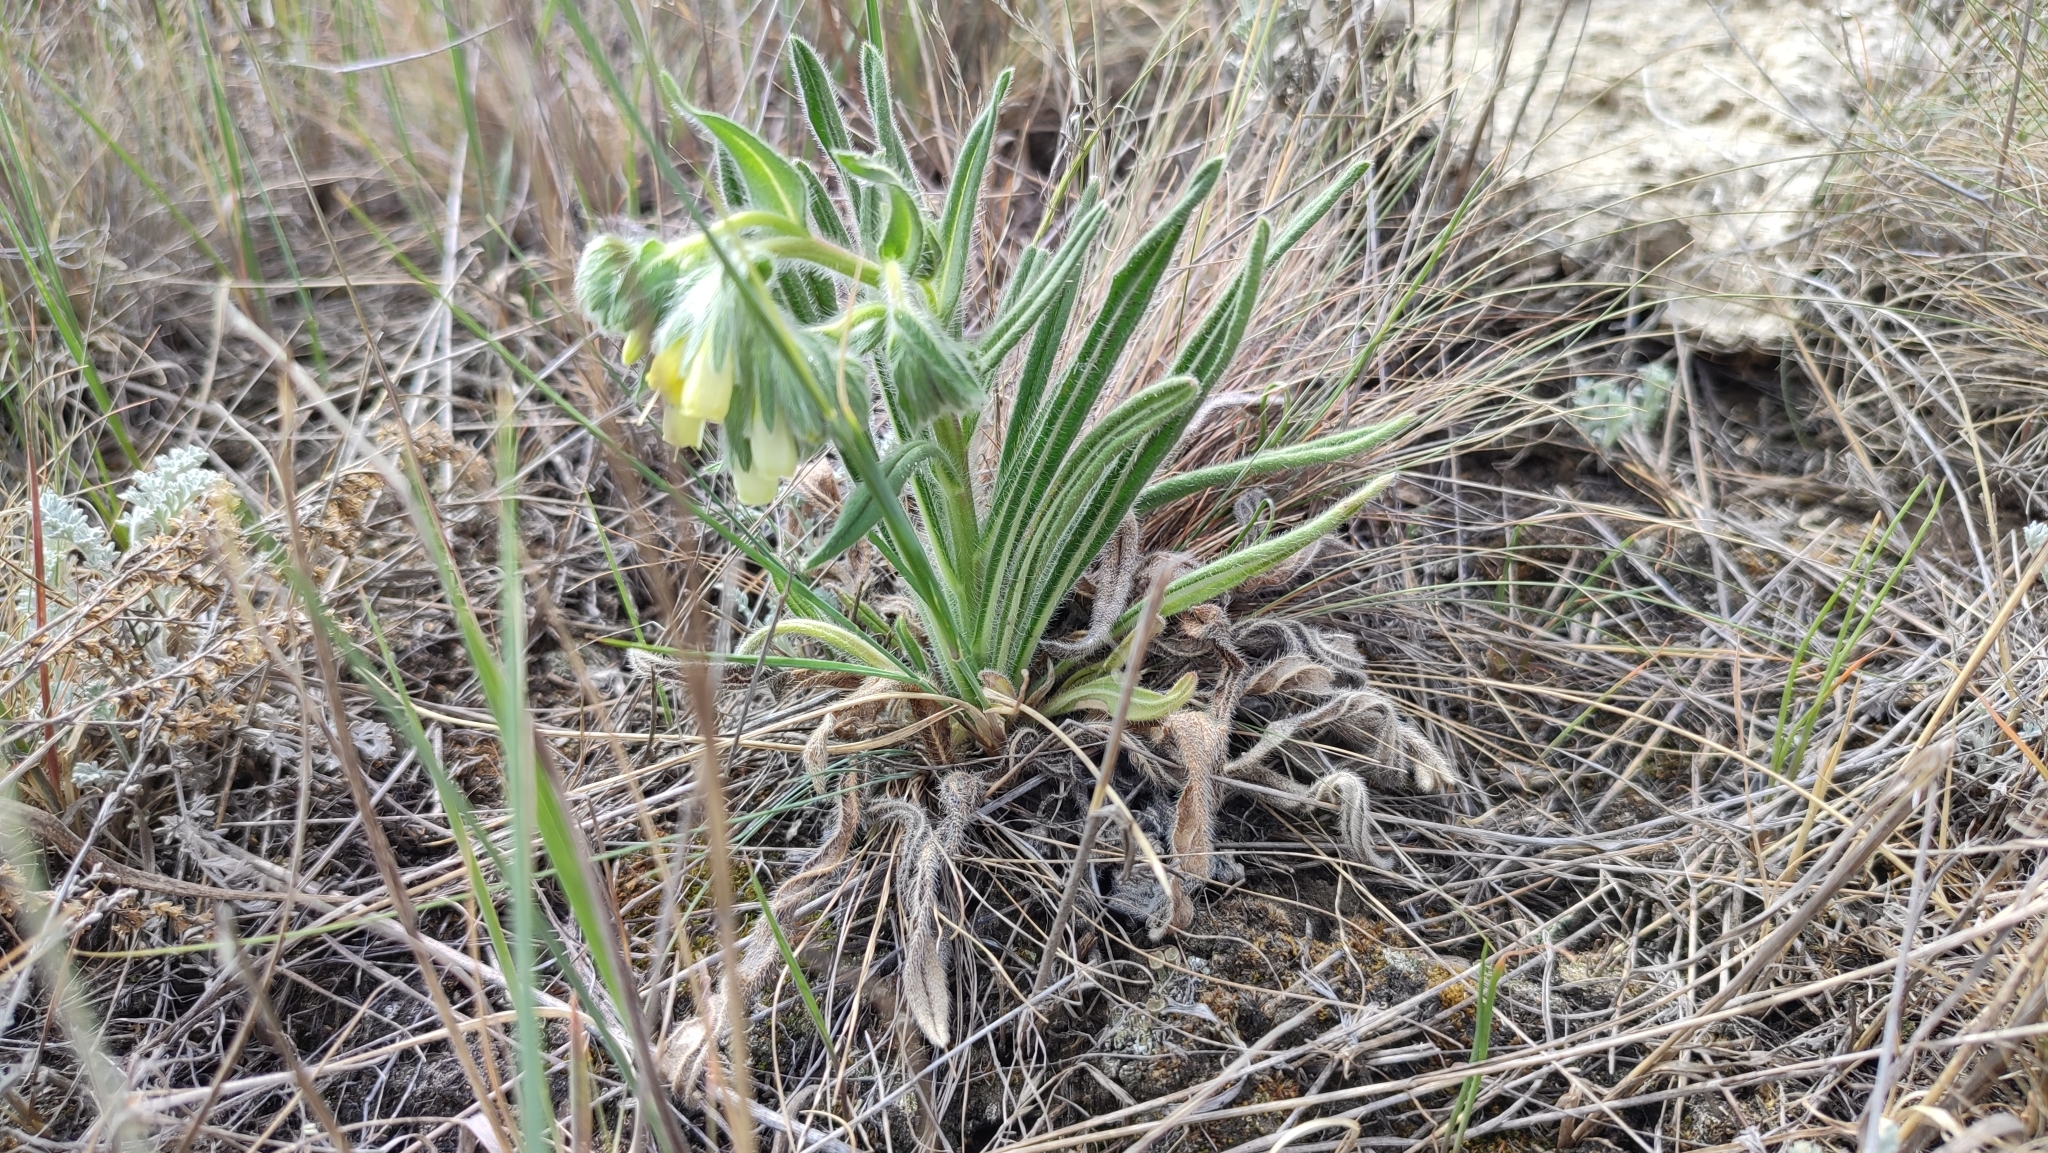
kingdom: Plantae
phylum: Tracheophyta
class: Magnoliopsida
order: Boraginales
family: Boraginaceae
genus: Onosma
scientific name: Onosma simplicissima
